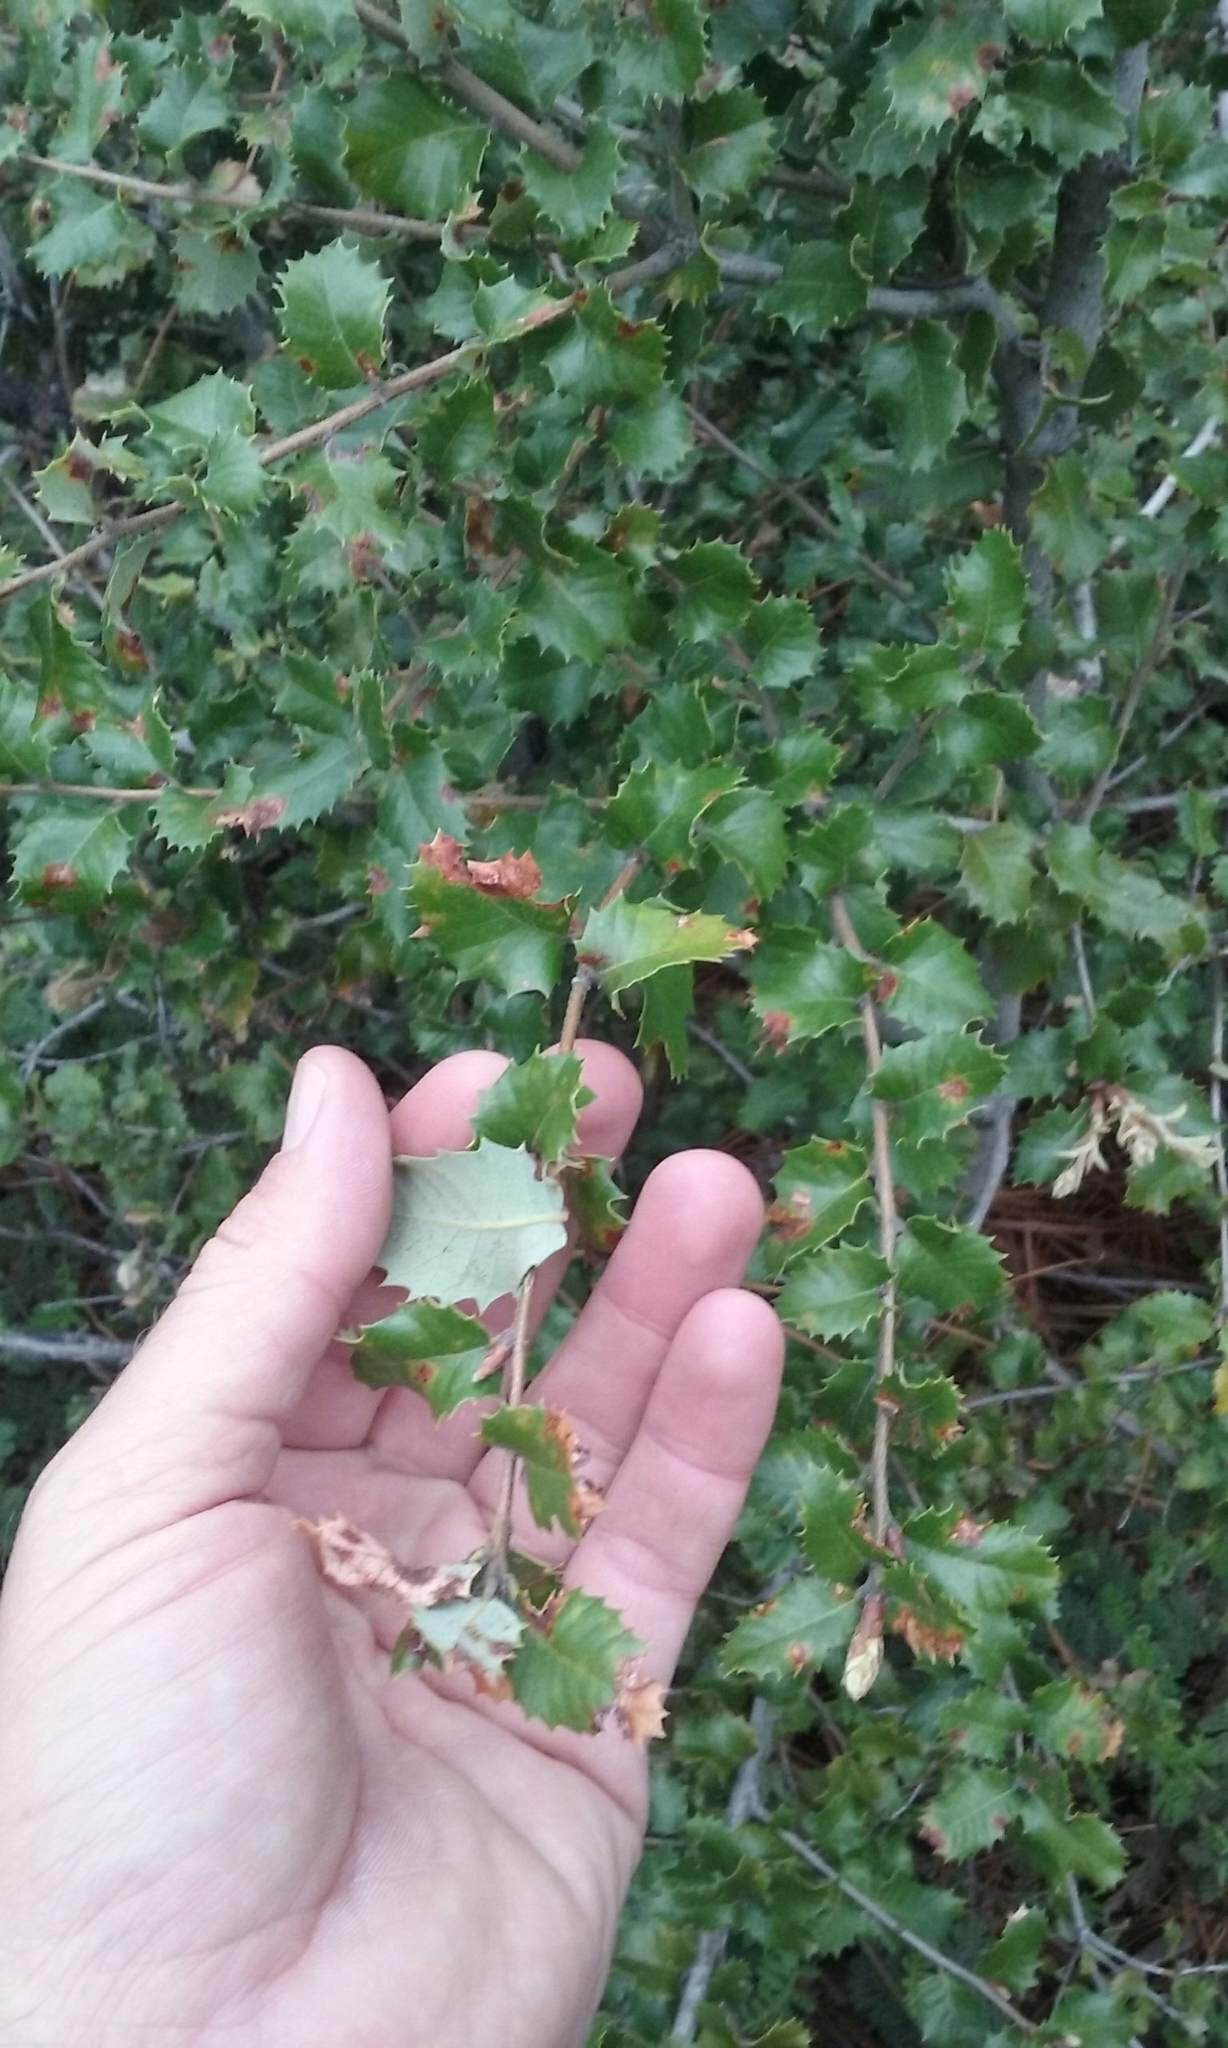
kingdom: Plantae
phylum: Tracheophyta
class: Magnoliopsida
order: Fagales
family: Fagaceae
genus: Quercus
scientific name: Quercus chrysolepis
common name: Canyon live oak
